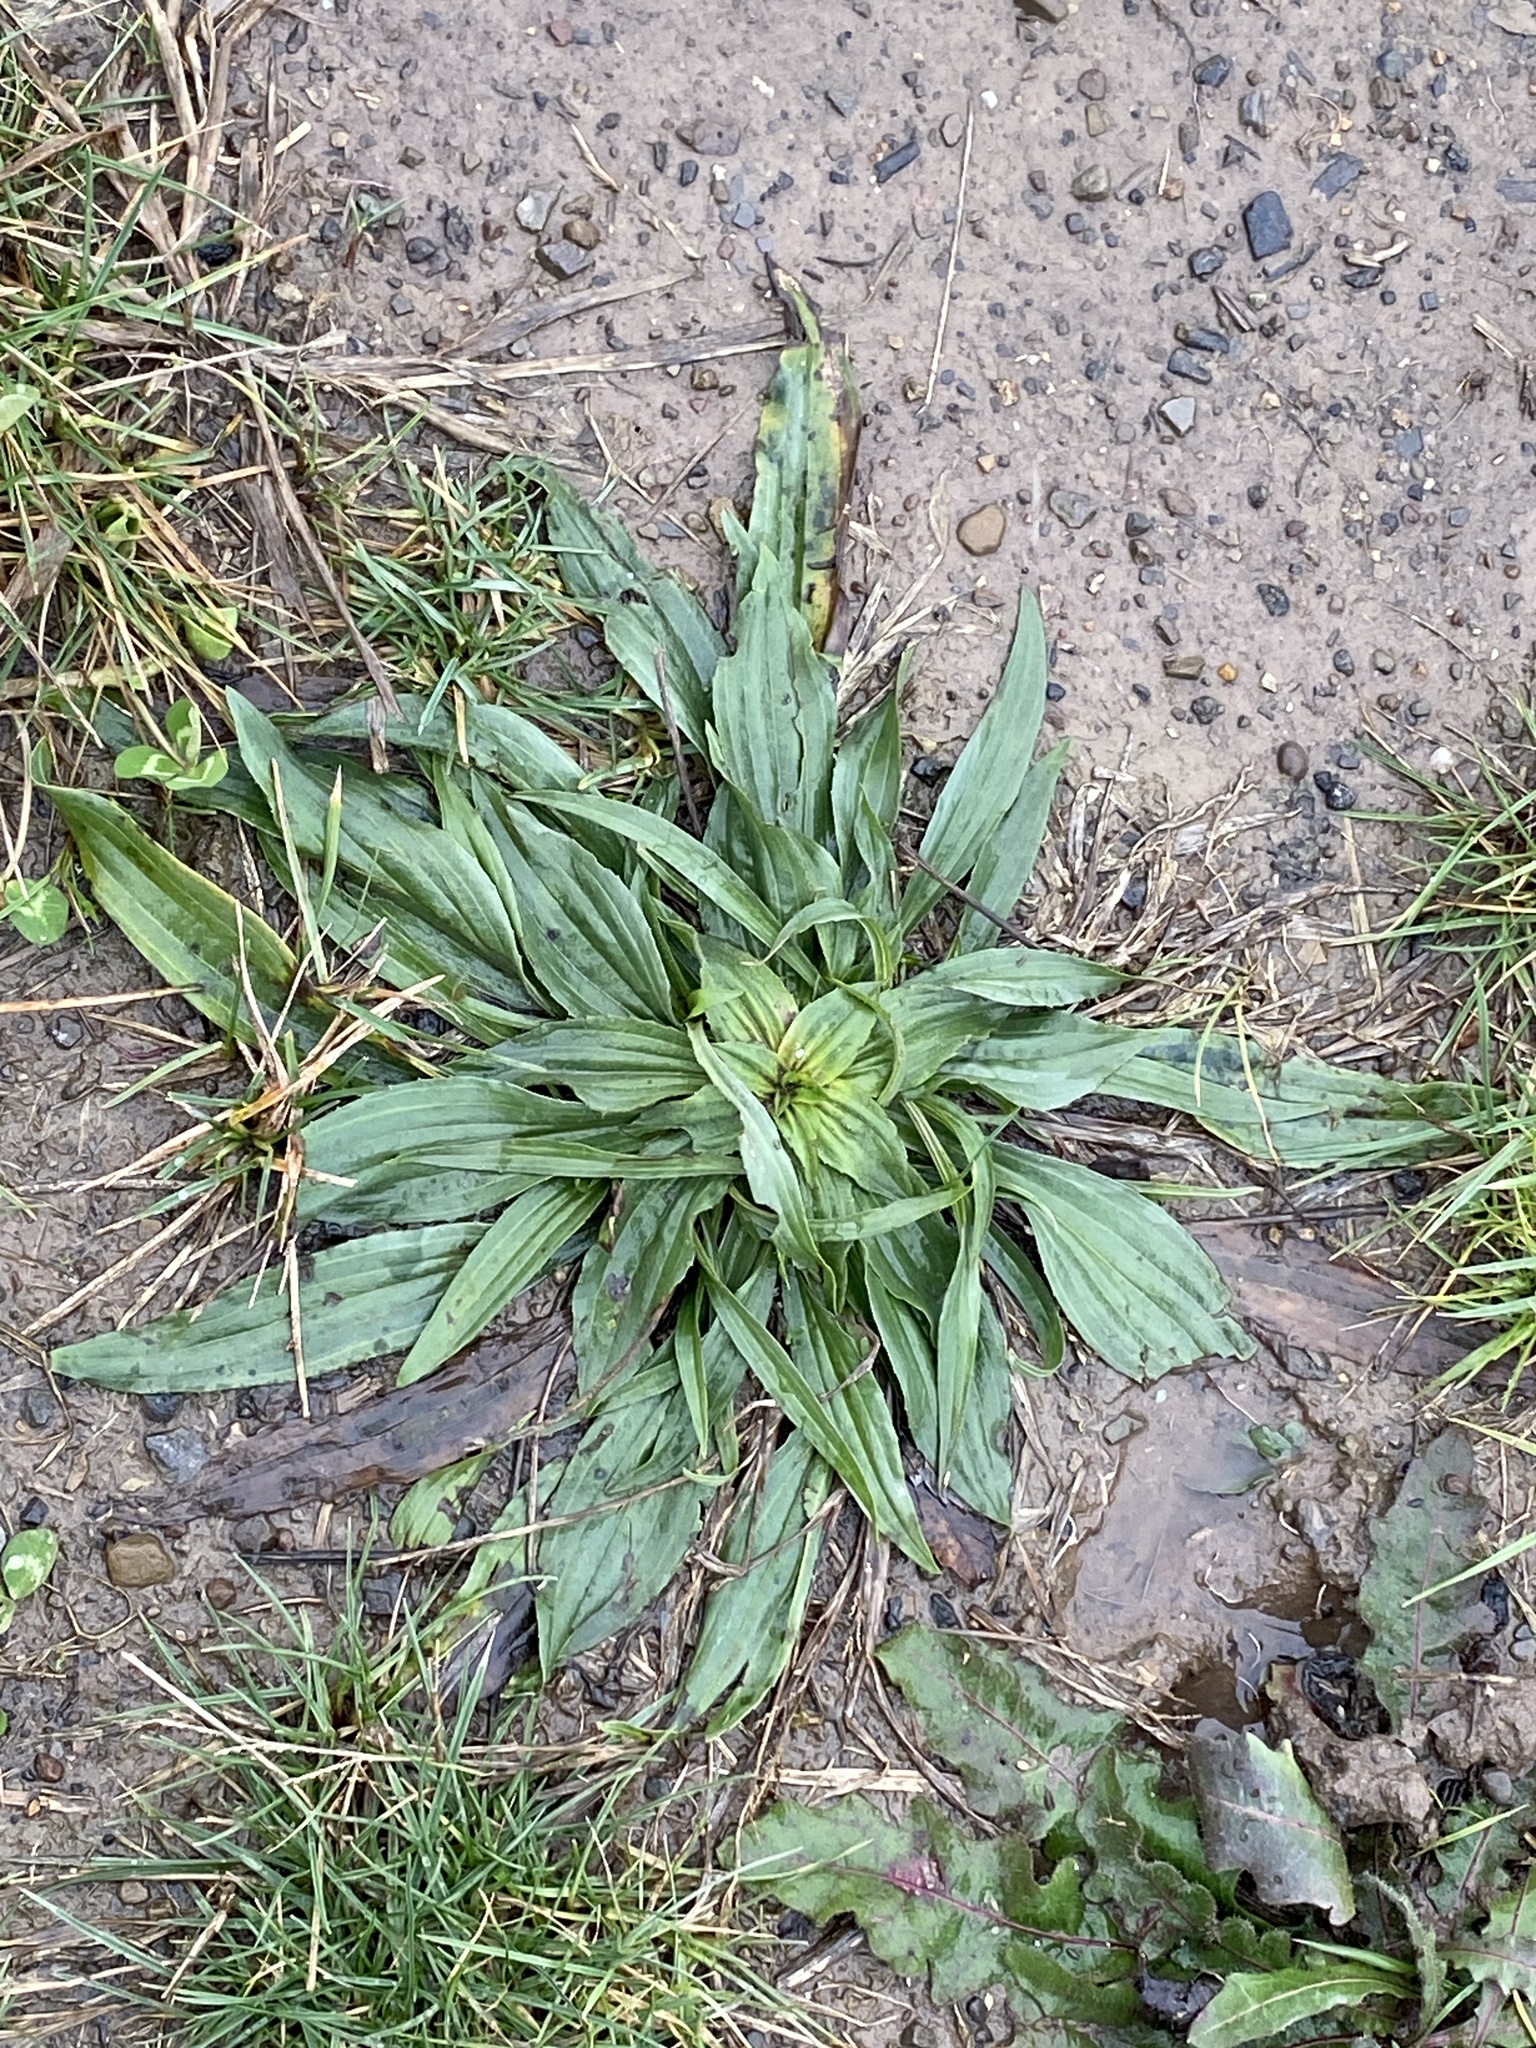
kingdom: Plantae
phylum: Tracheophyta
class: Magnoliopsida
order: Lamiales
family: Plantaginaceae
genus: Plantago
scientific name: Plantago lanceolata
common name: Ribwort plantain
